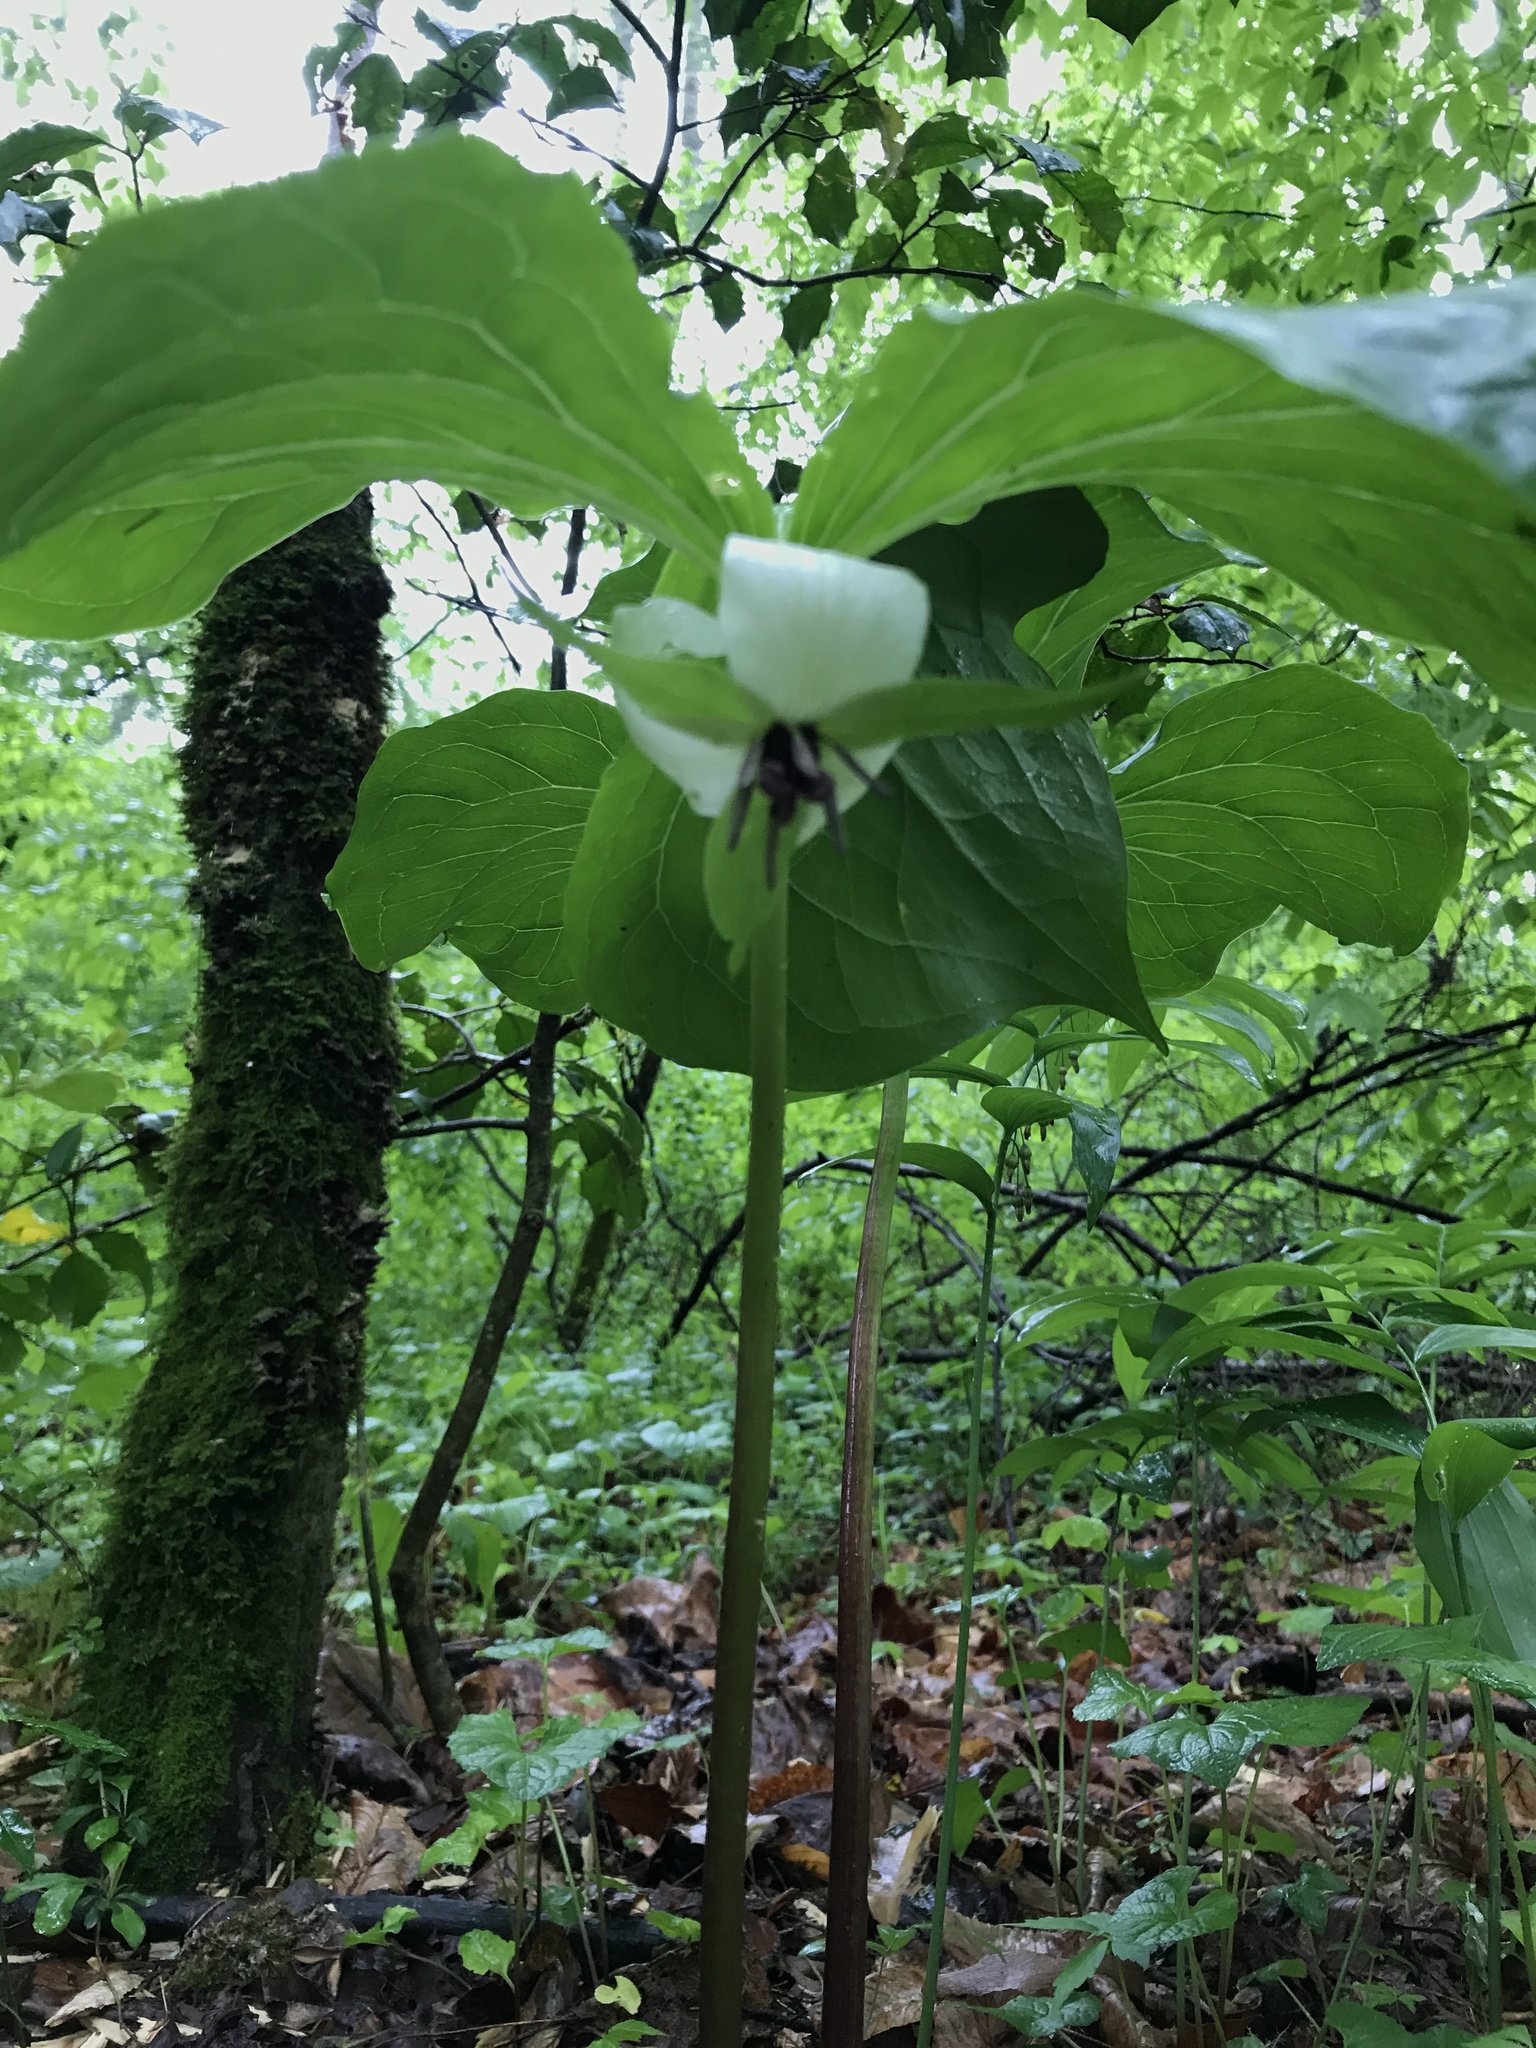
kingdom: Plantae
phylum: Tracheophyta
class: Liliopsida
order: Liliales
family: Melanthiaceae
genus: Trillium
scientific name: Trillium rugelii
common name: Ill-scented trillium
